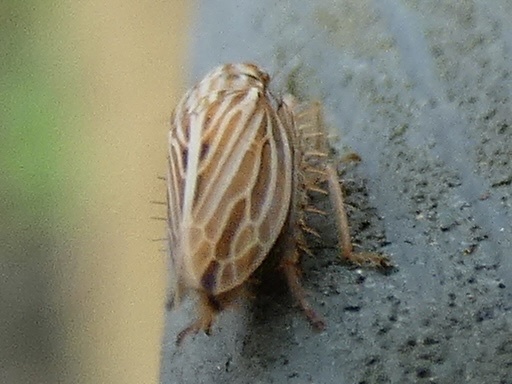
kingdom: Animalia
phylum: Arthropoda
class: Insecta
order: Hemiptera
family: Cicadellidae
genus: Mocydia
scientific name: Mocydia crocea
